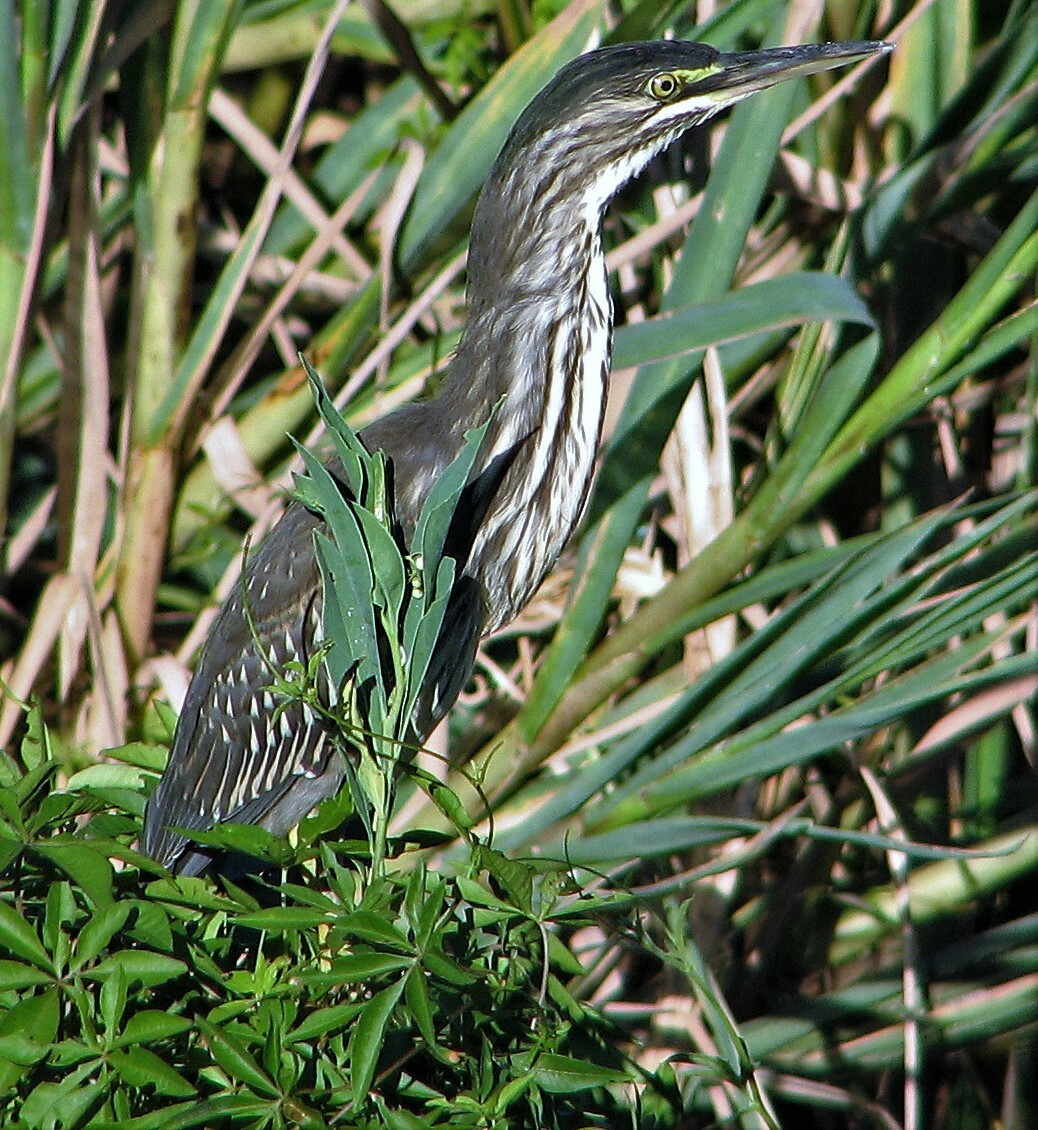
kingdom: Animalia
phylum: Chordata
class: Aves
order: Pelecaniformes
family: Ardeidae
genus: Butorides
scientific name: Butorides striata
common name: Striated heron
